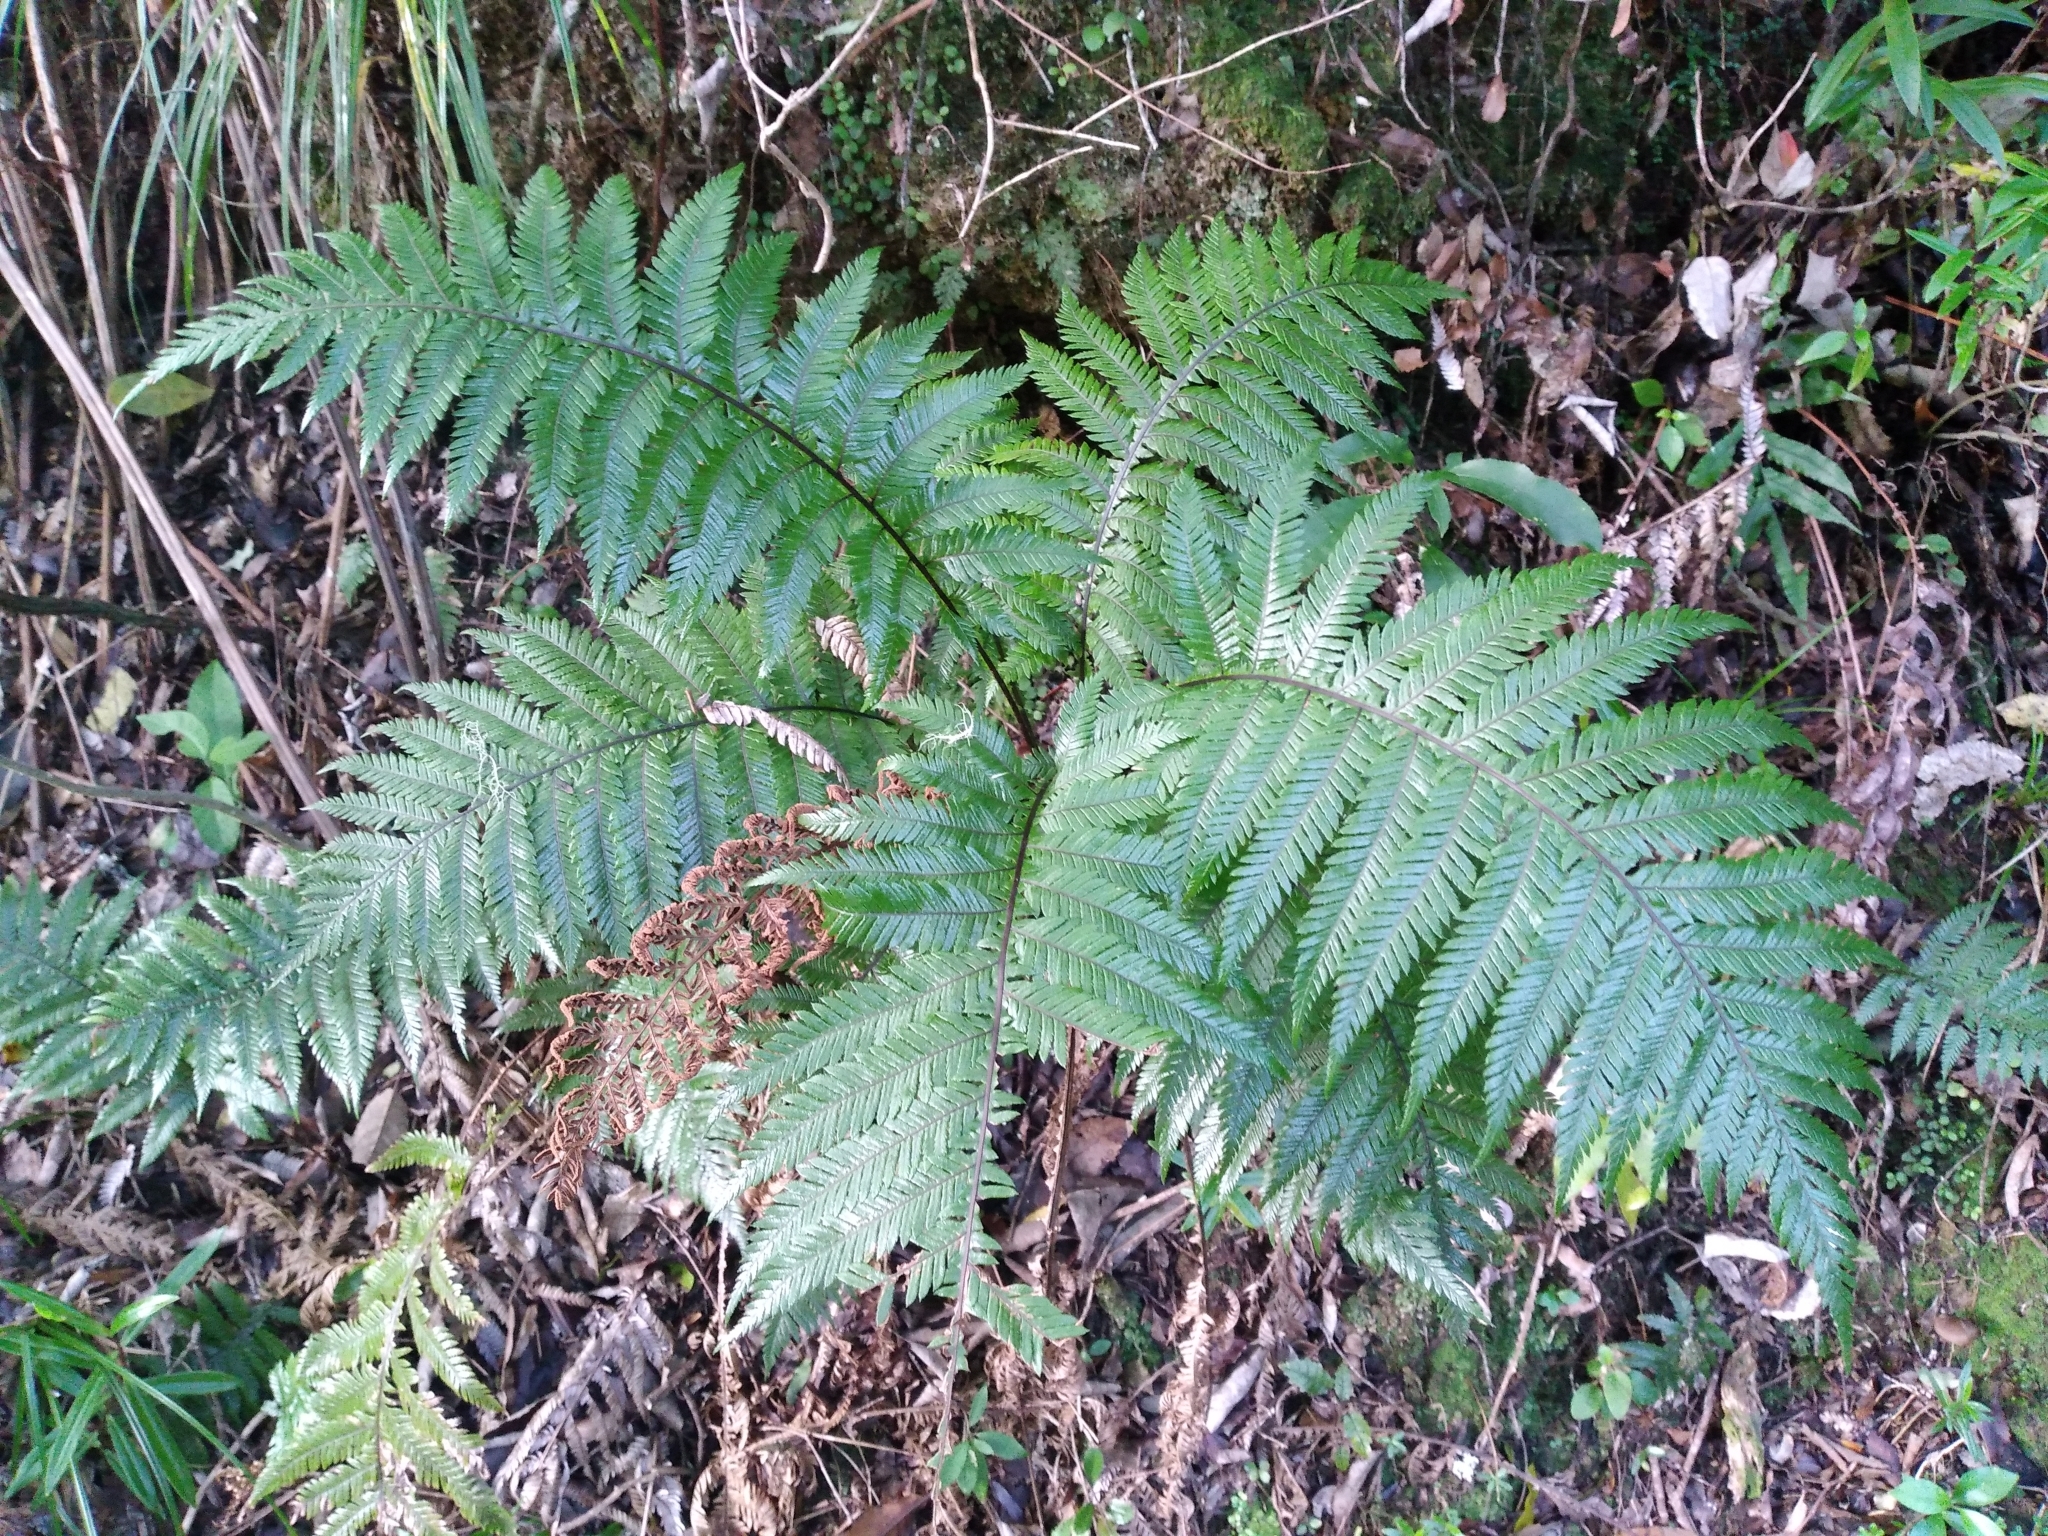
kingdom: Plantae
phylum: Tracheophyta
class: Polypodiopsida
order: Polypodiales
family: Blechnaceae
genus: Diploblechnum
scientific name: Diploblechnum fraseri
